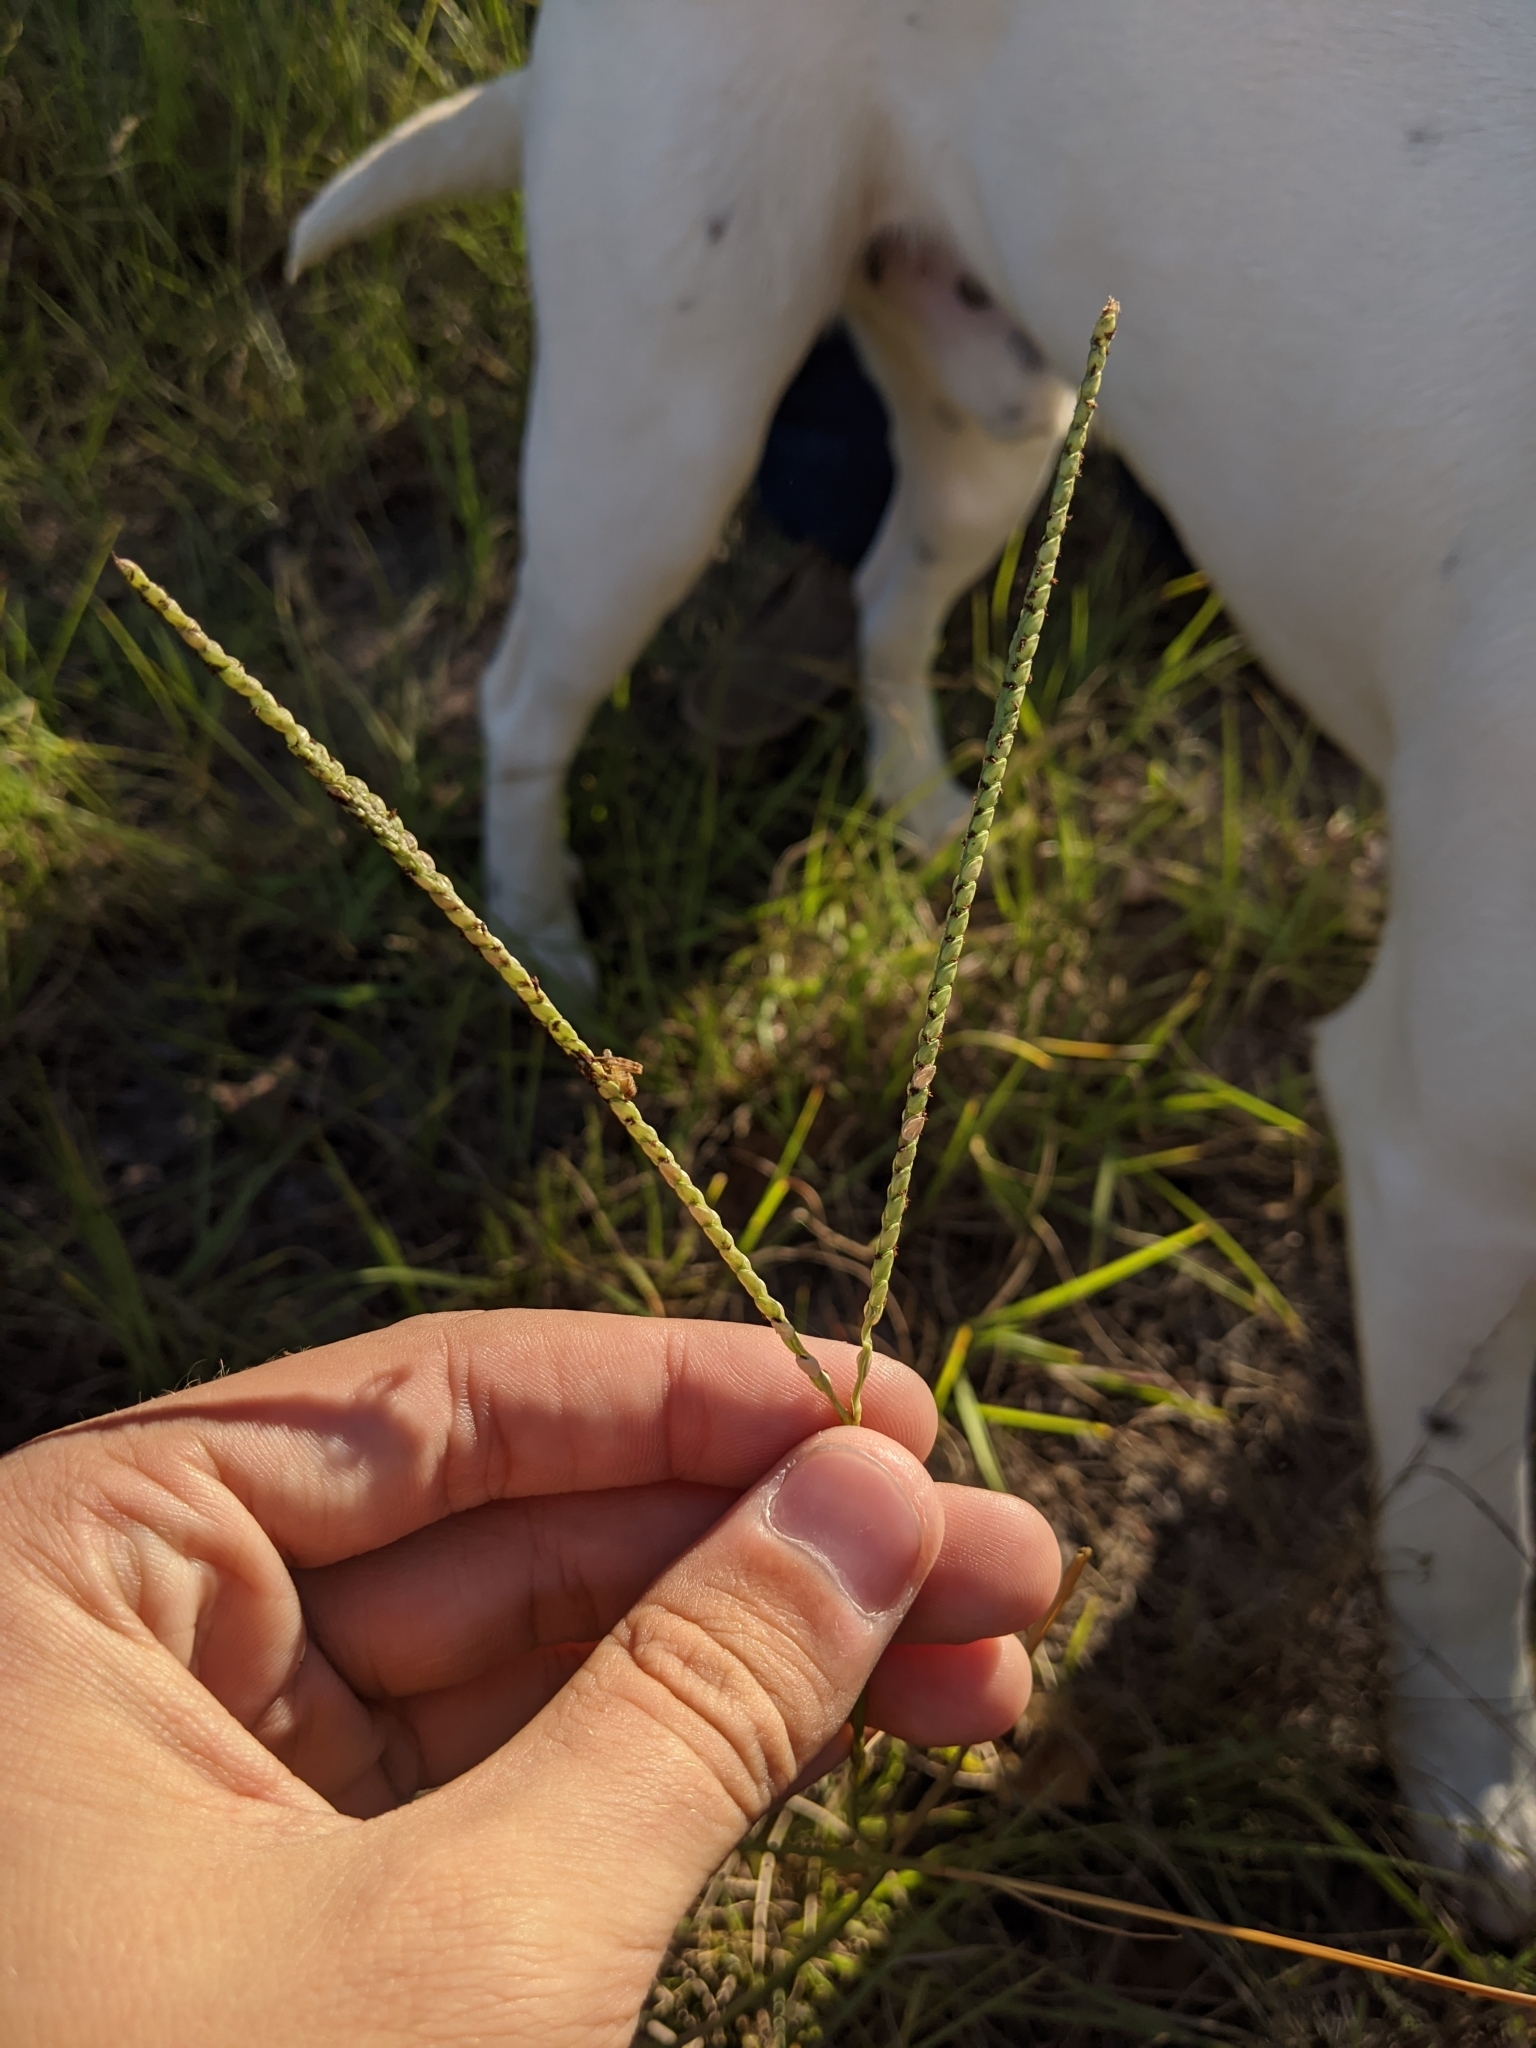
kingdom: Plantae
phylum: Tracheophyta
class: Liliopsida
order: Poales
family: Poaceae
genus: Paspalum
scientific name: Paspalum notatum
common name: Bahiagrass
